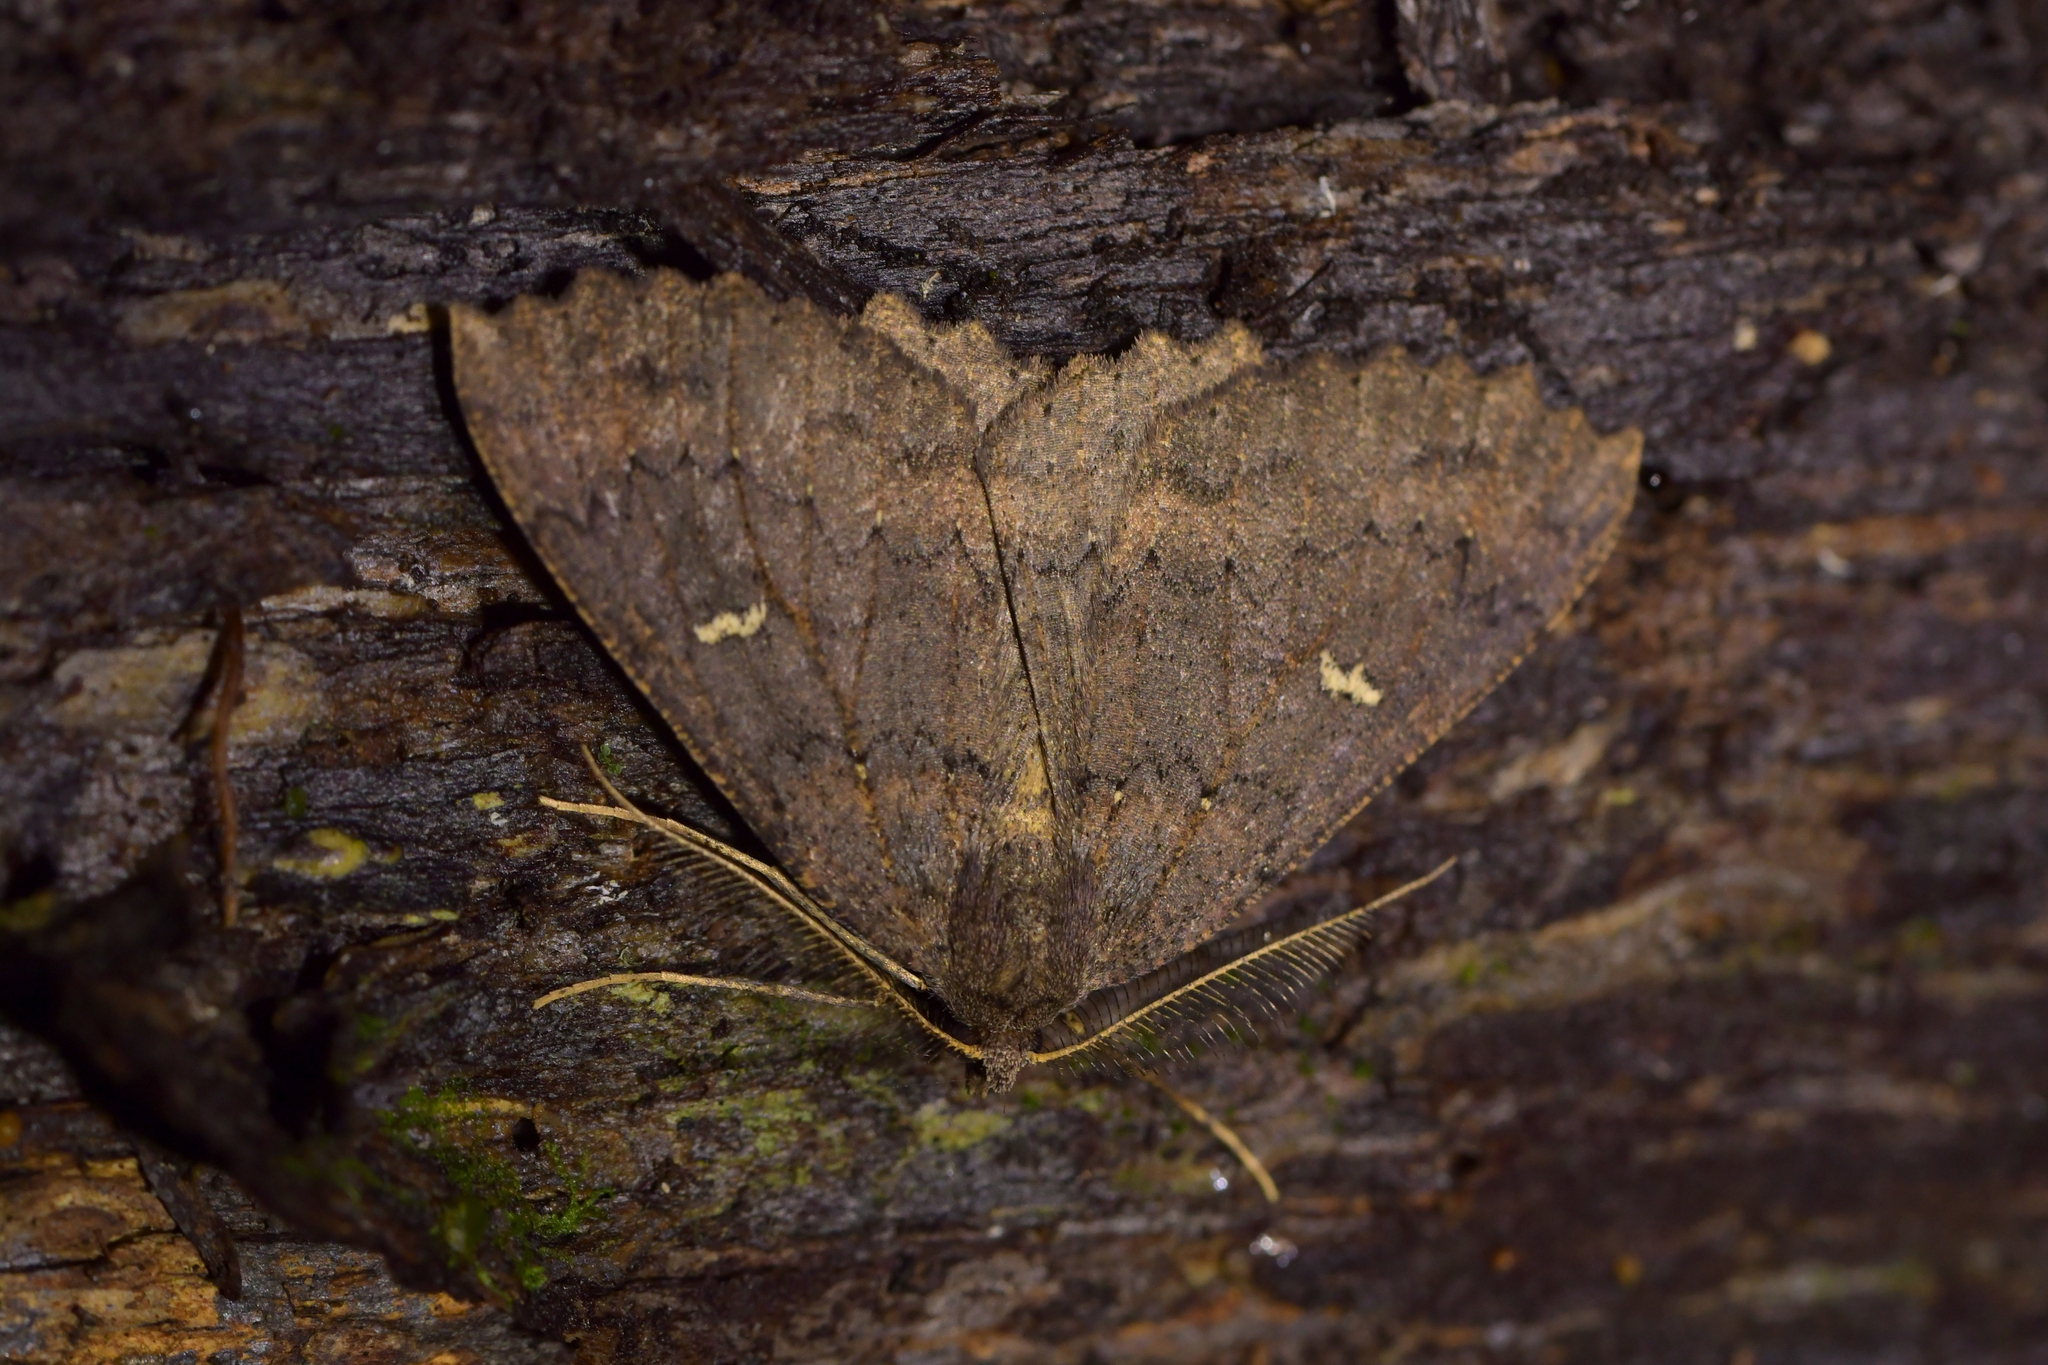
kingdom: Animalia
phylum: Arthropoda
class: Insecta
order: Lepidoptera
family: Geometridae
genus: Cleora
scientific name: Cleora scriptaria
